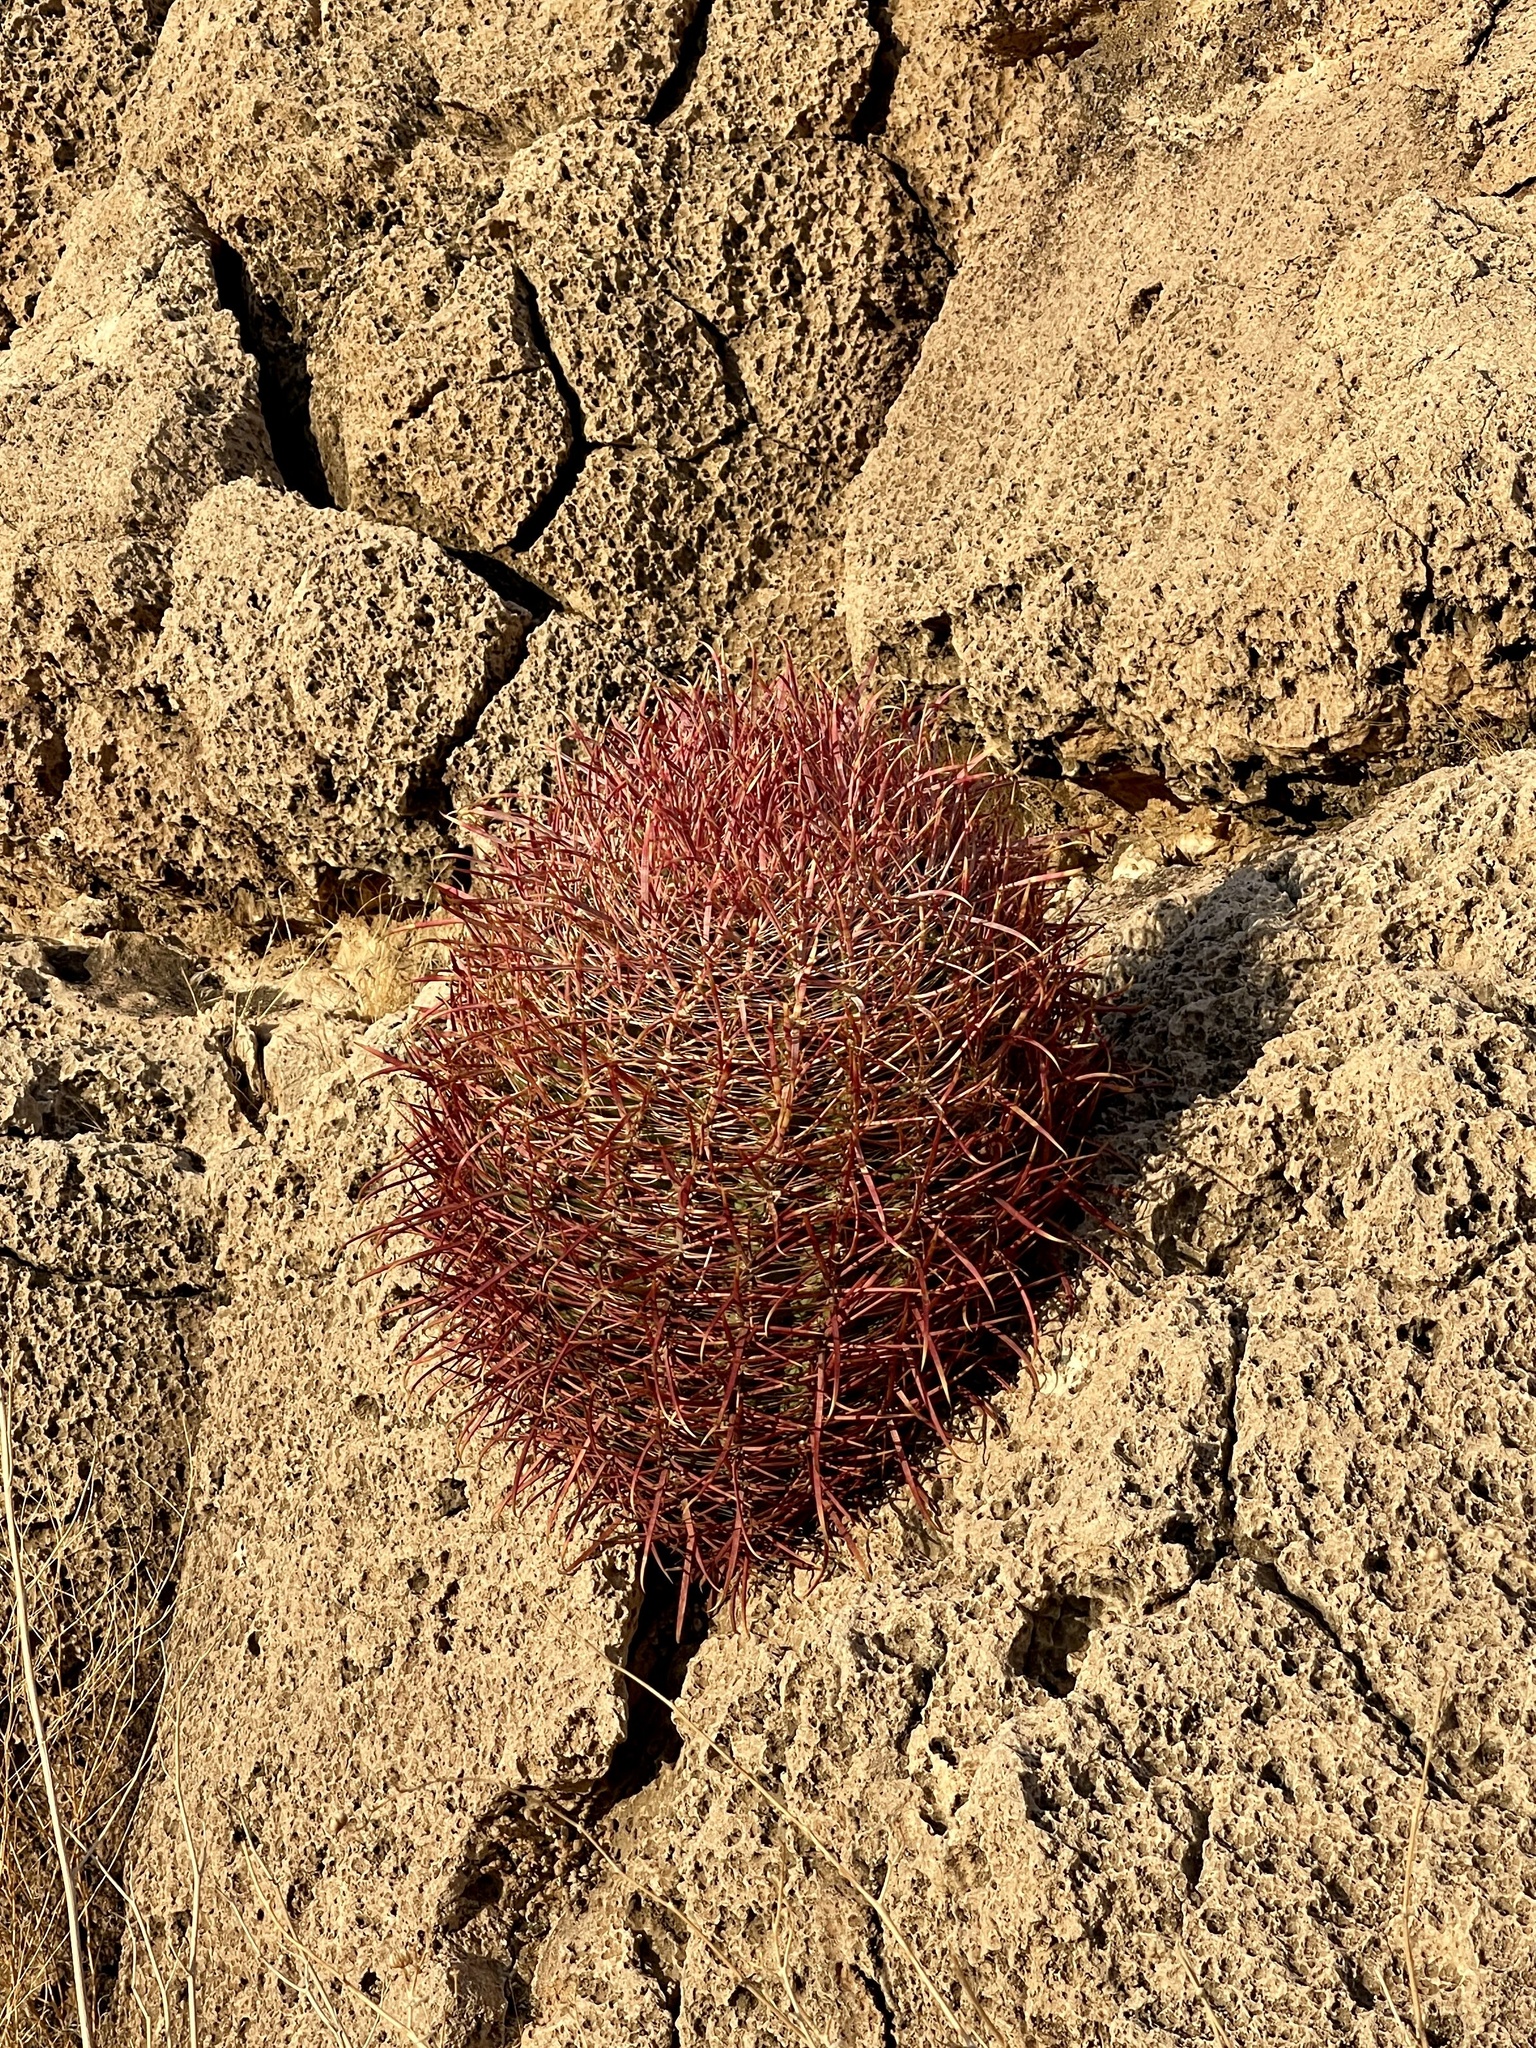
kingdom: Plantae
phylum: Tracheophyta
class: Magnoliopsida
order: Caryophyllales
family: Cactaceae
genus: Ferocactus
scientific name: Ferocactus cylindraceus
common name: California barrel cactus
